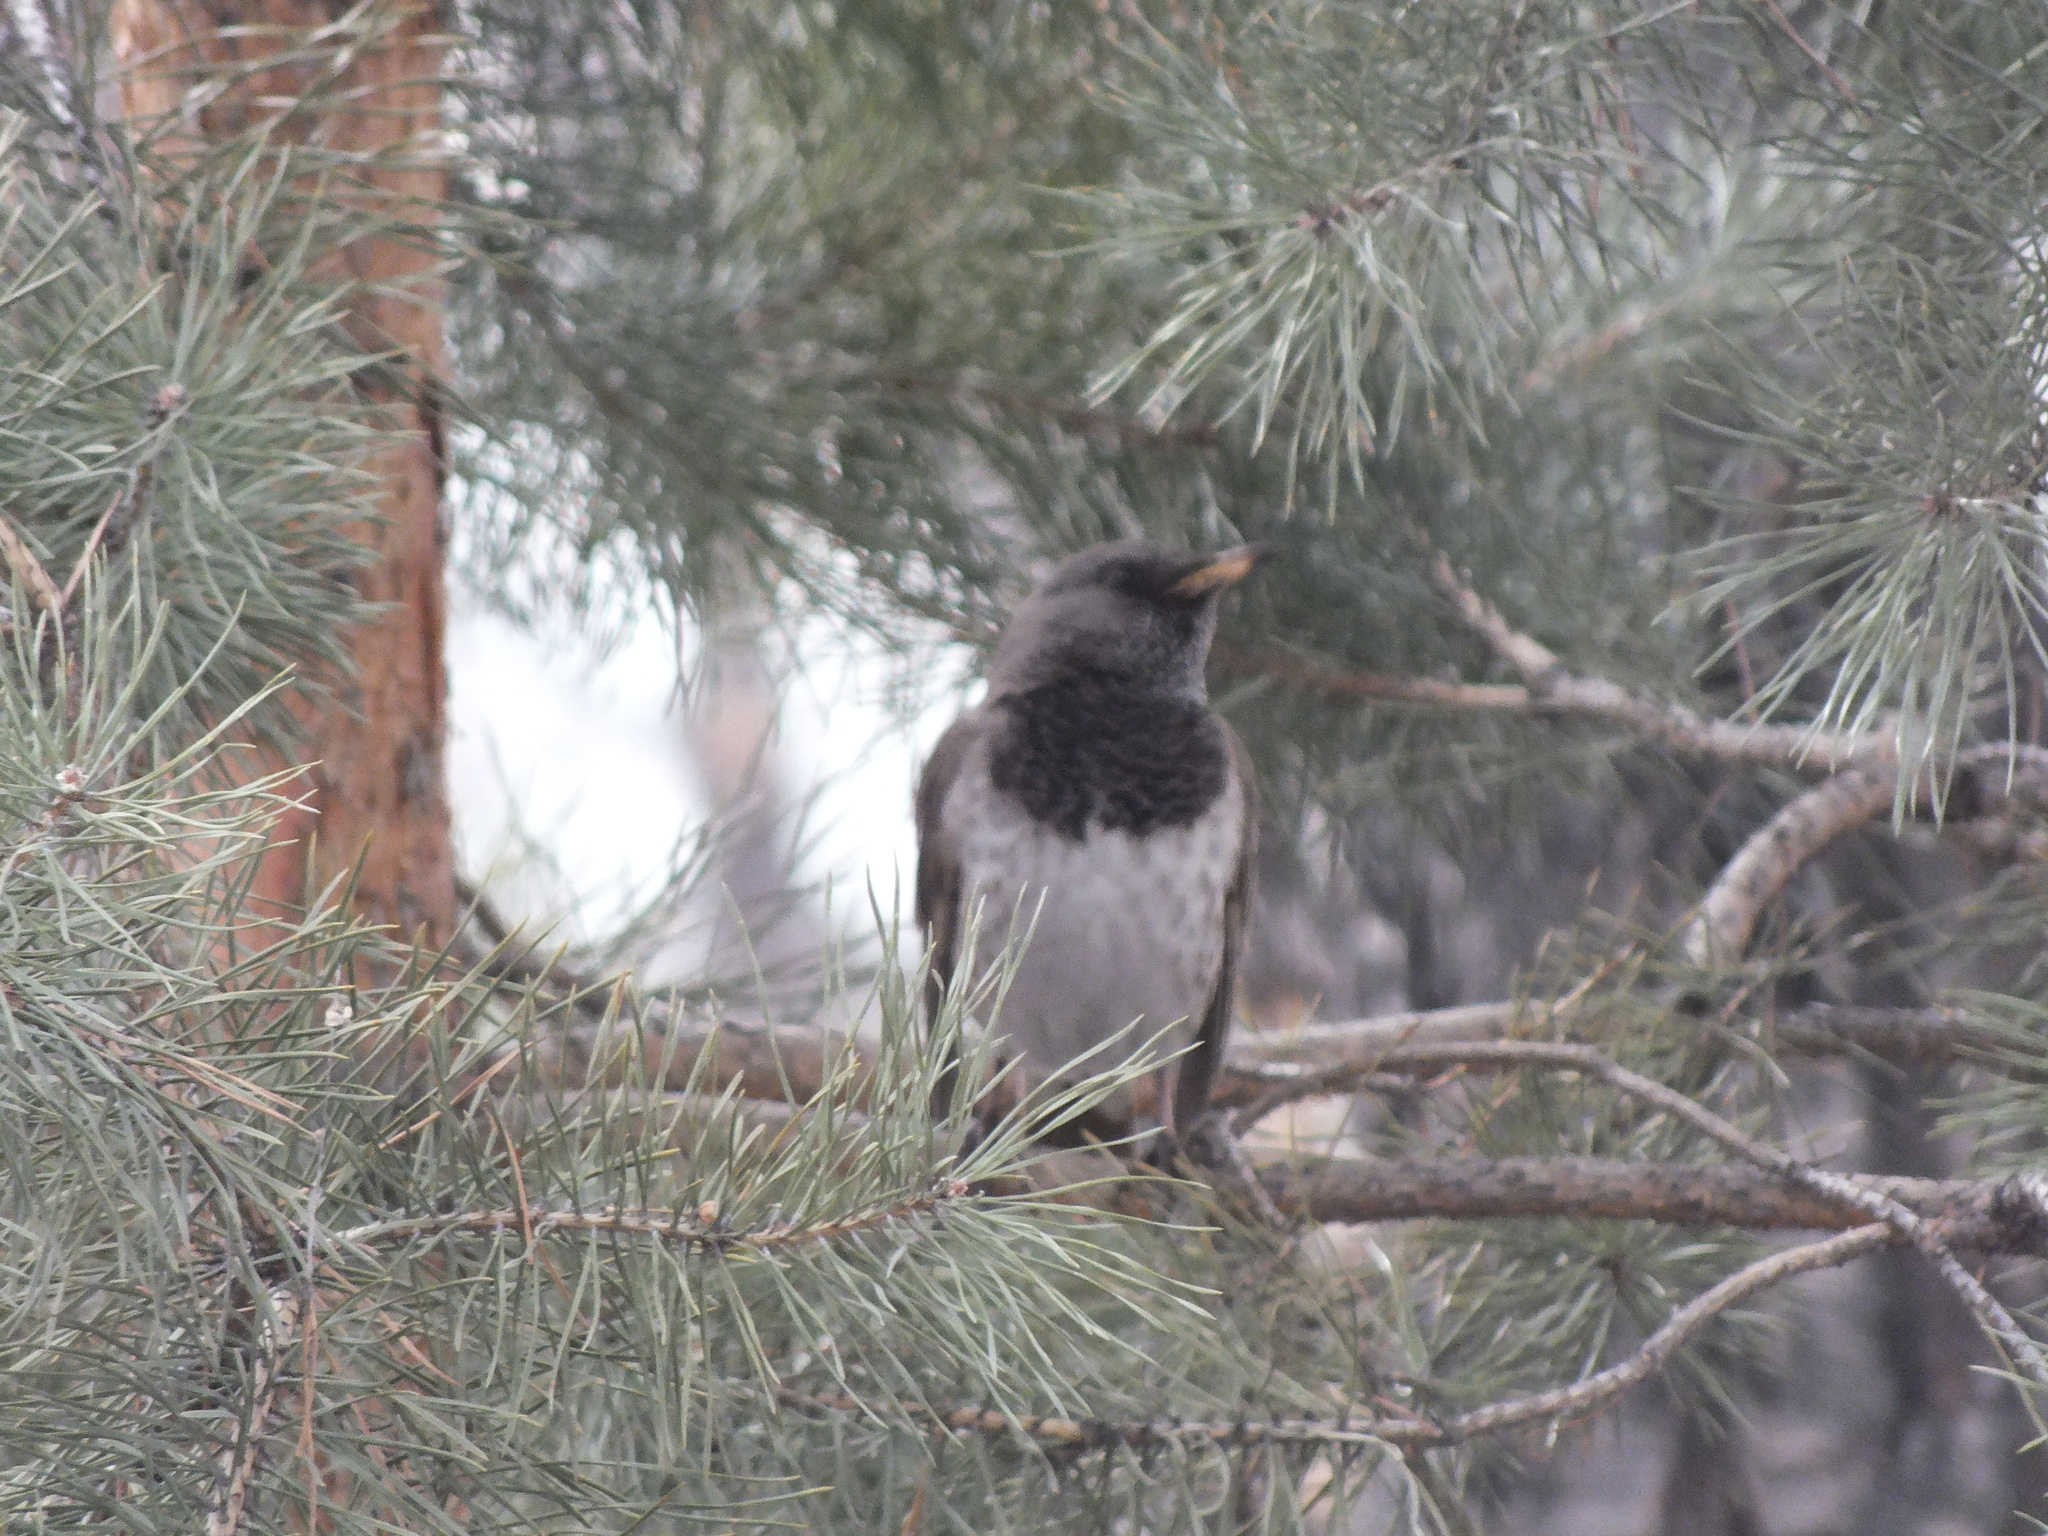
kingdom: Animalia
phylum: Chordata
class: Aves
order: Passeriformes
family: Turdidae
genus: Turdus
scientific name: Turdus atrogularis
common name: Black-throated thrush
